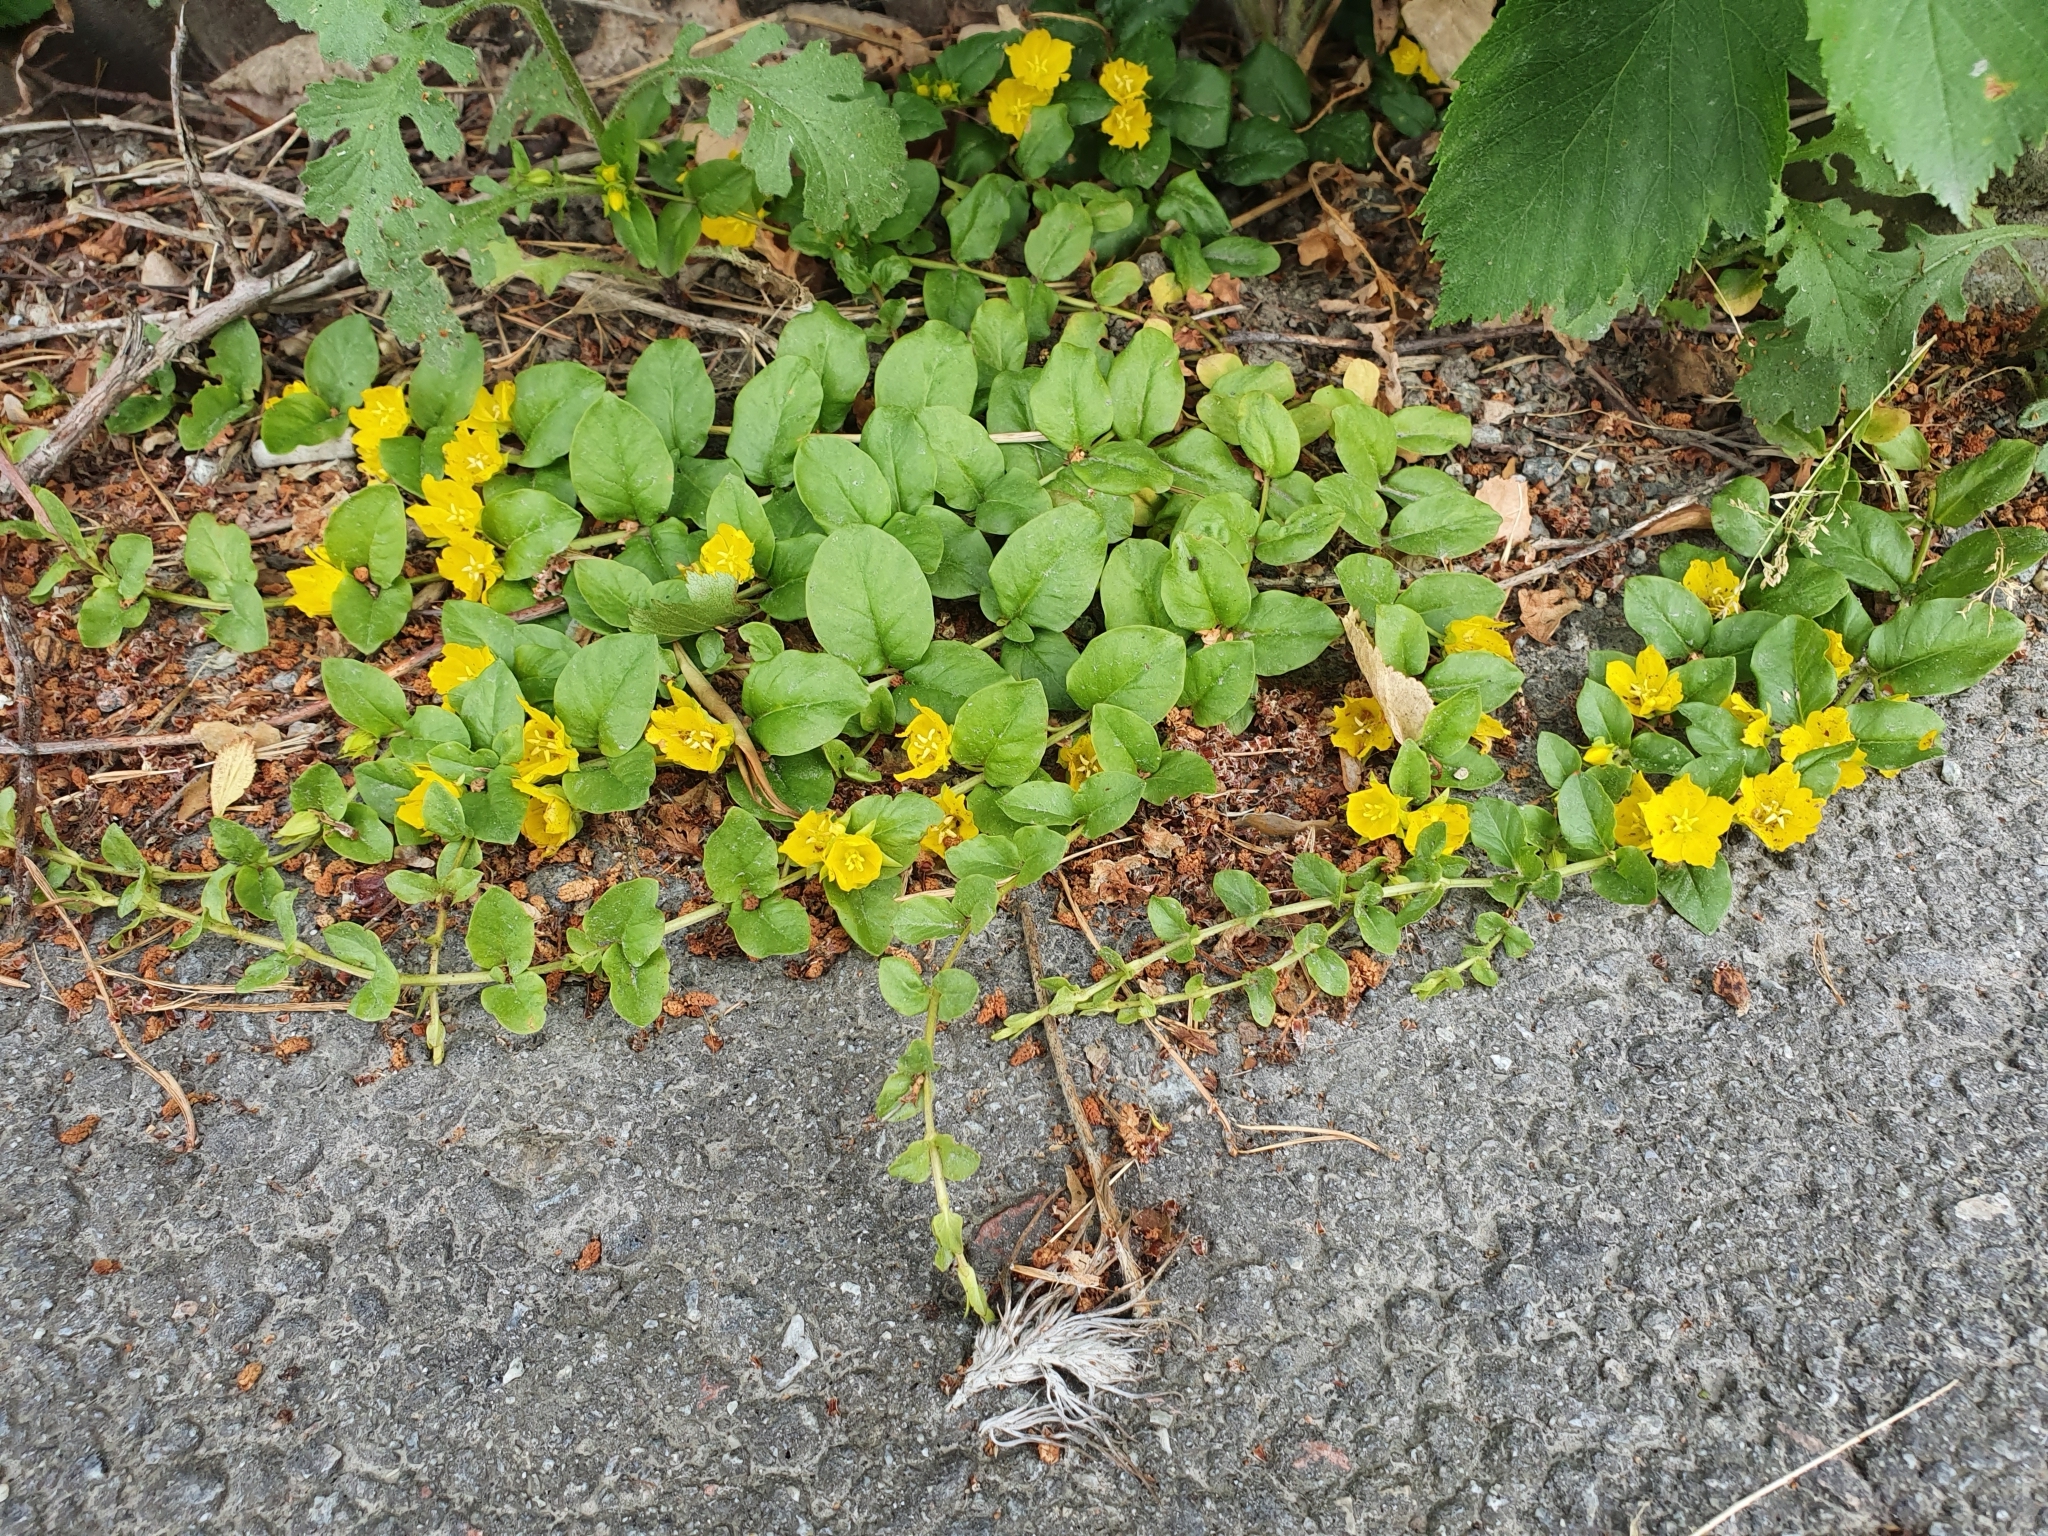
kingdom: Plantae
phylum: Tracheophyta
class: Magnoliopsida
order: Ericales
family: Primulaceae
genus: Lysimachia
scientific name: Lysimachia nummularia
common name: Moneywort
